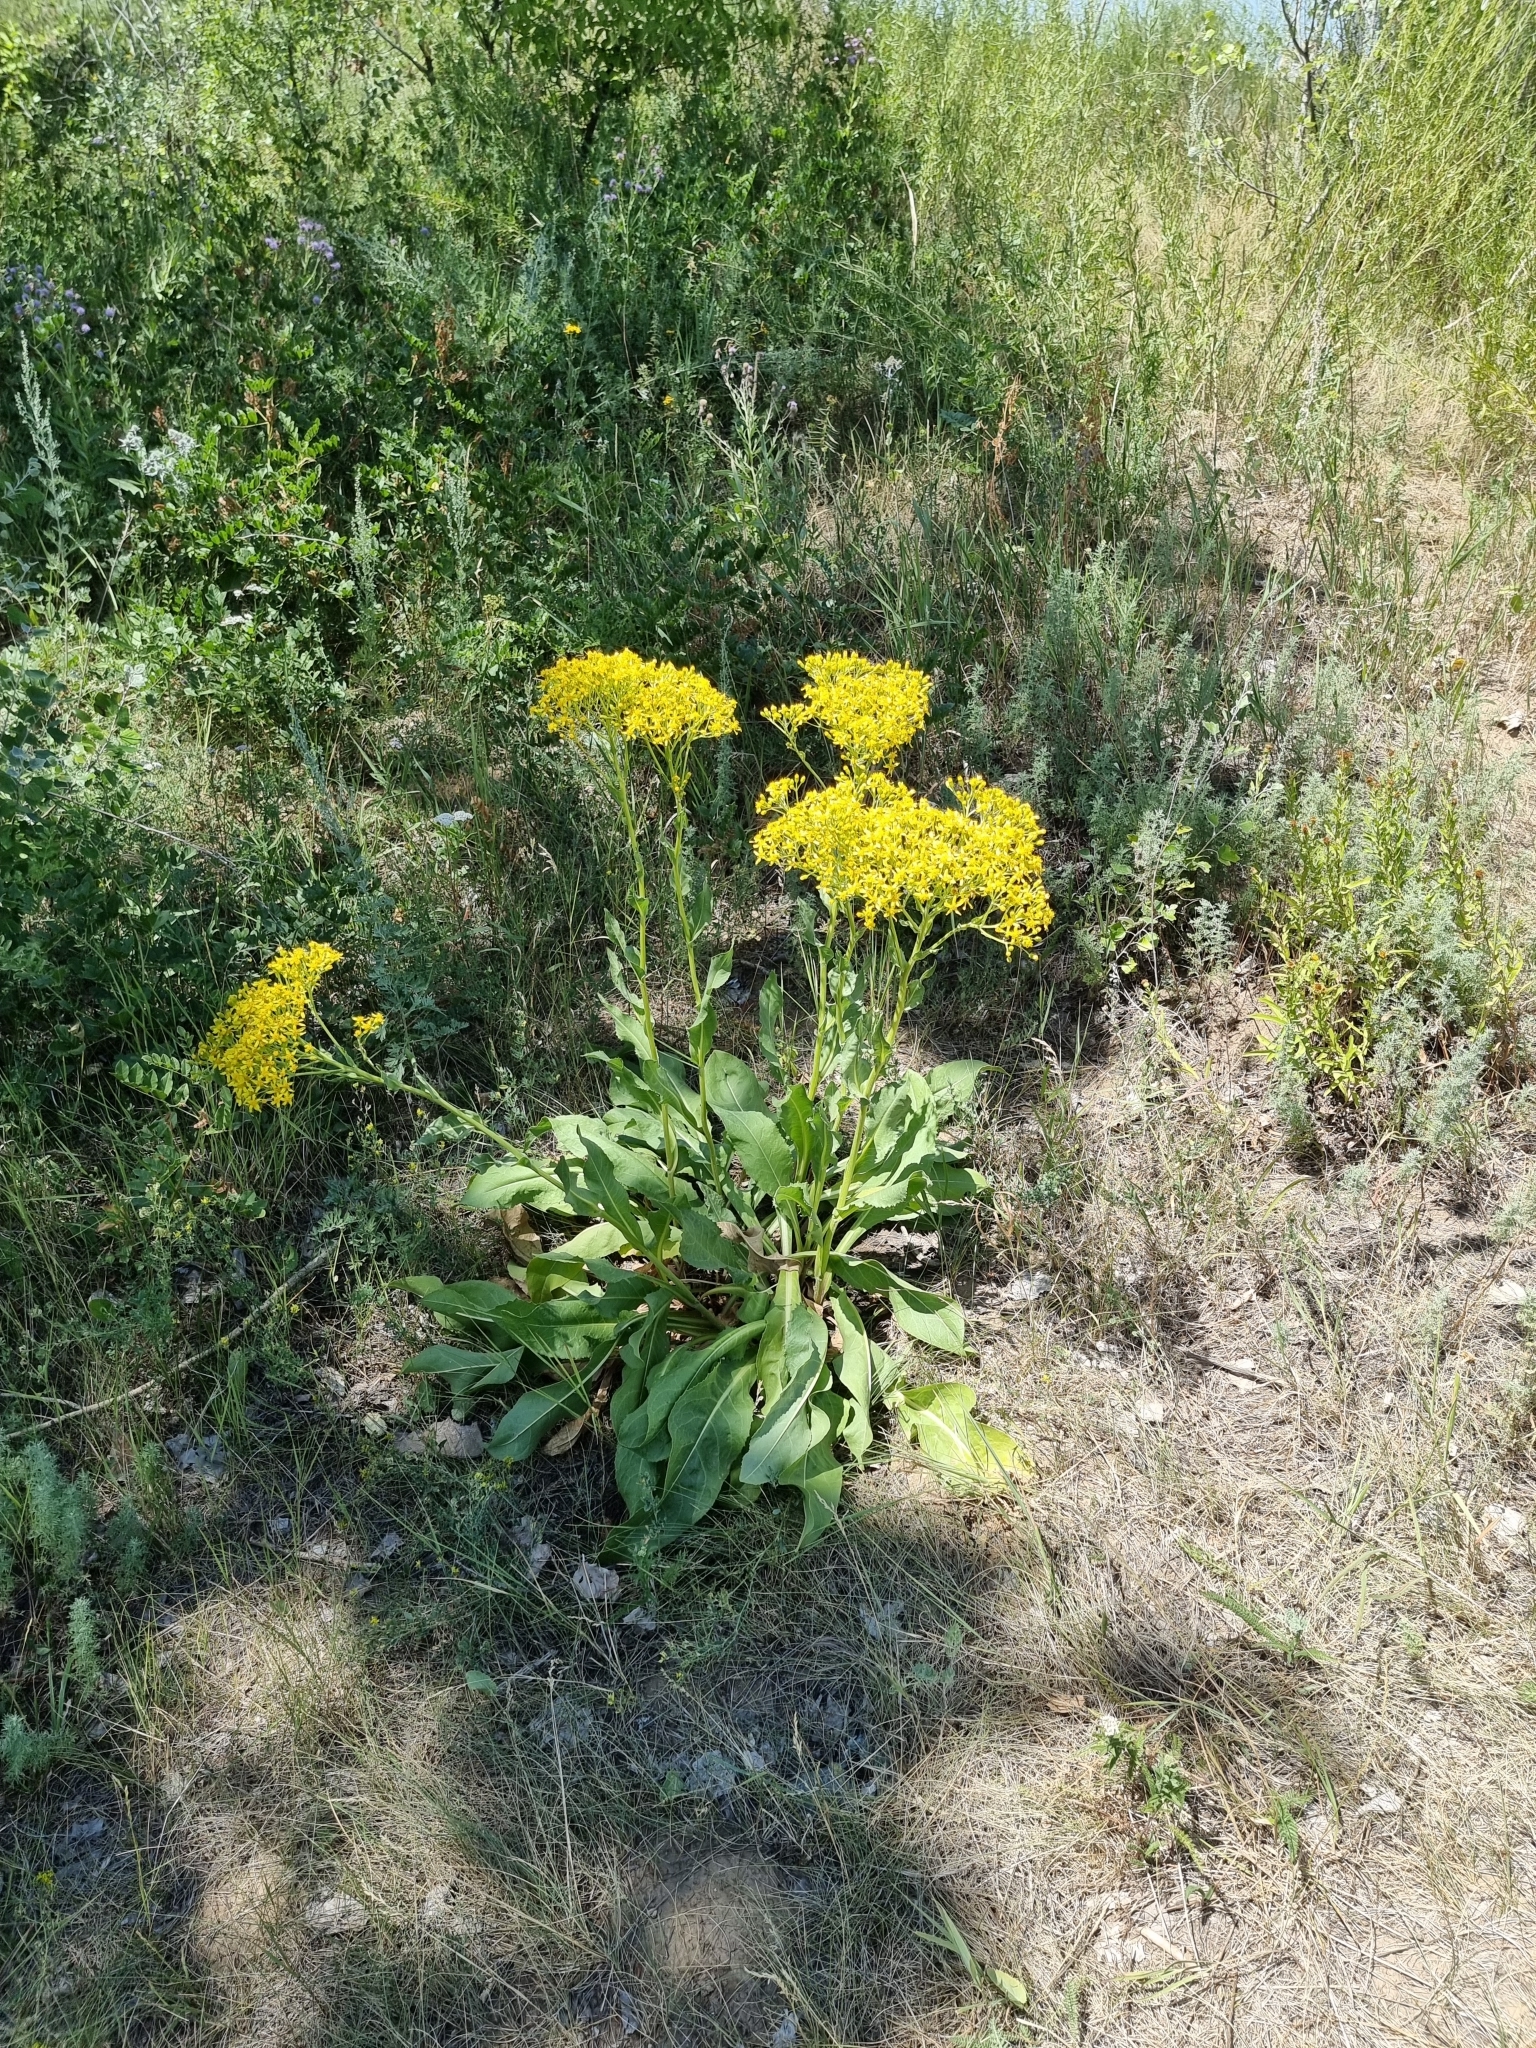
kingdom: Plantae
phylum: Tracheophyta
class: Magnoliopsida
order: Asterales
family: Asteraceae
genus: Senecio
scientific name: Senecio doria
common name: Golden ragwort
